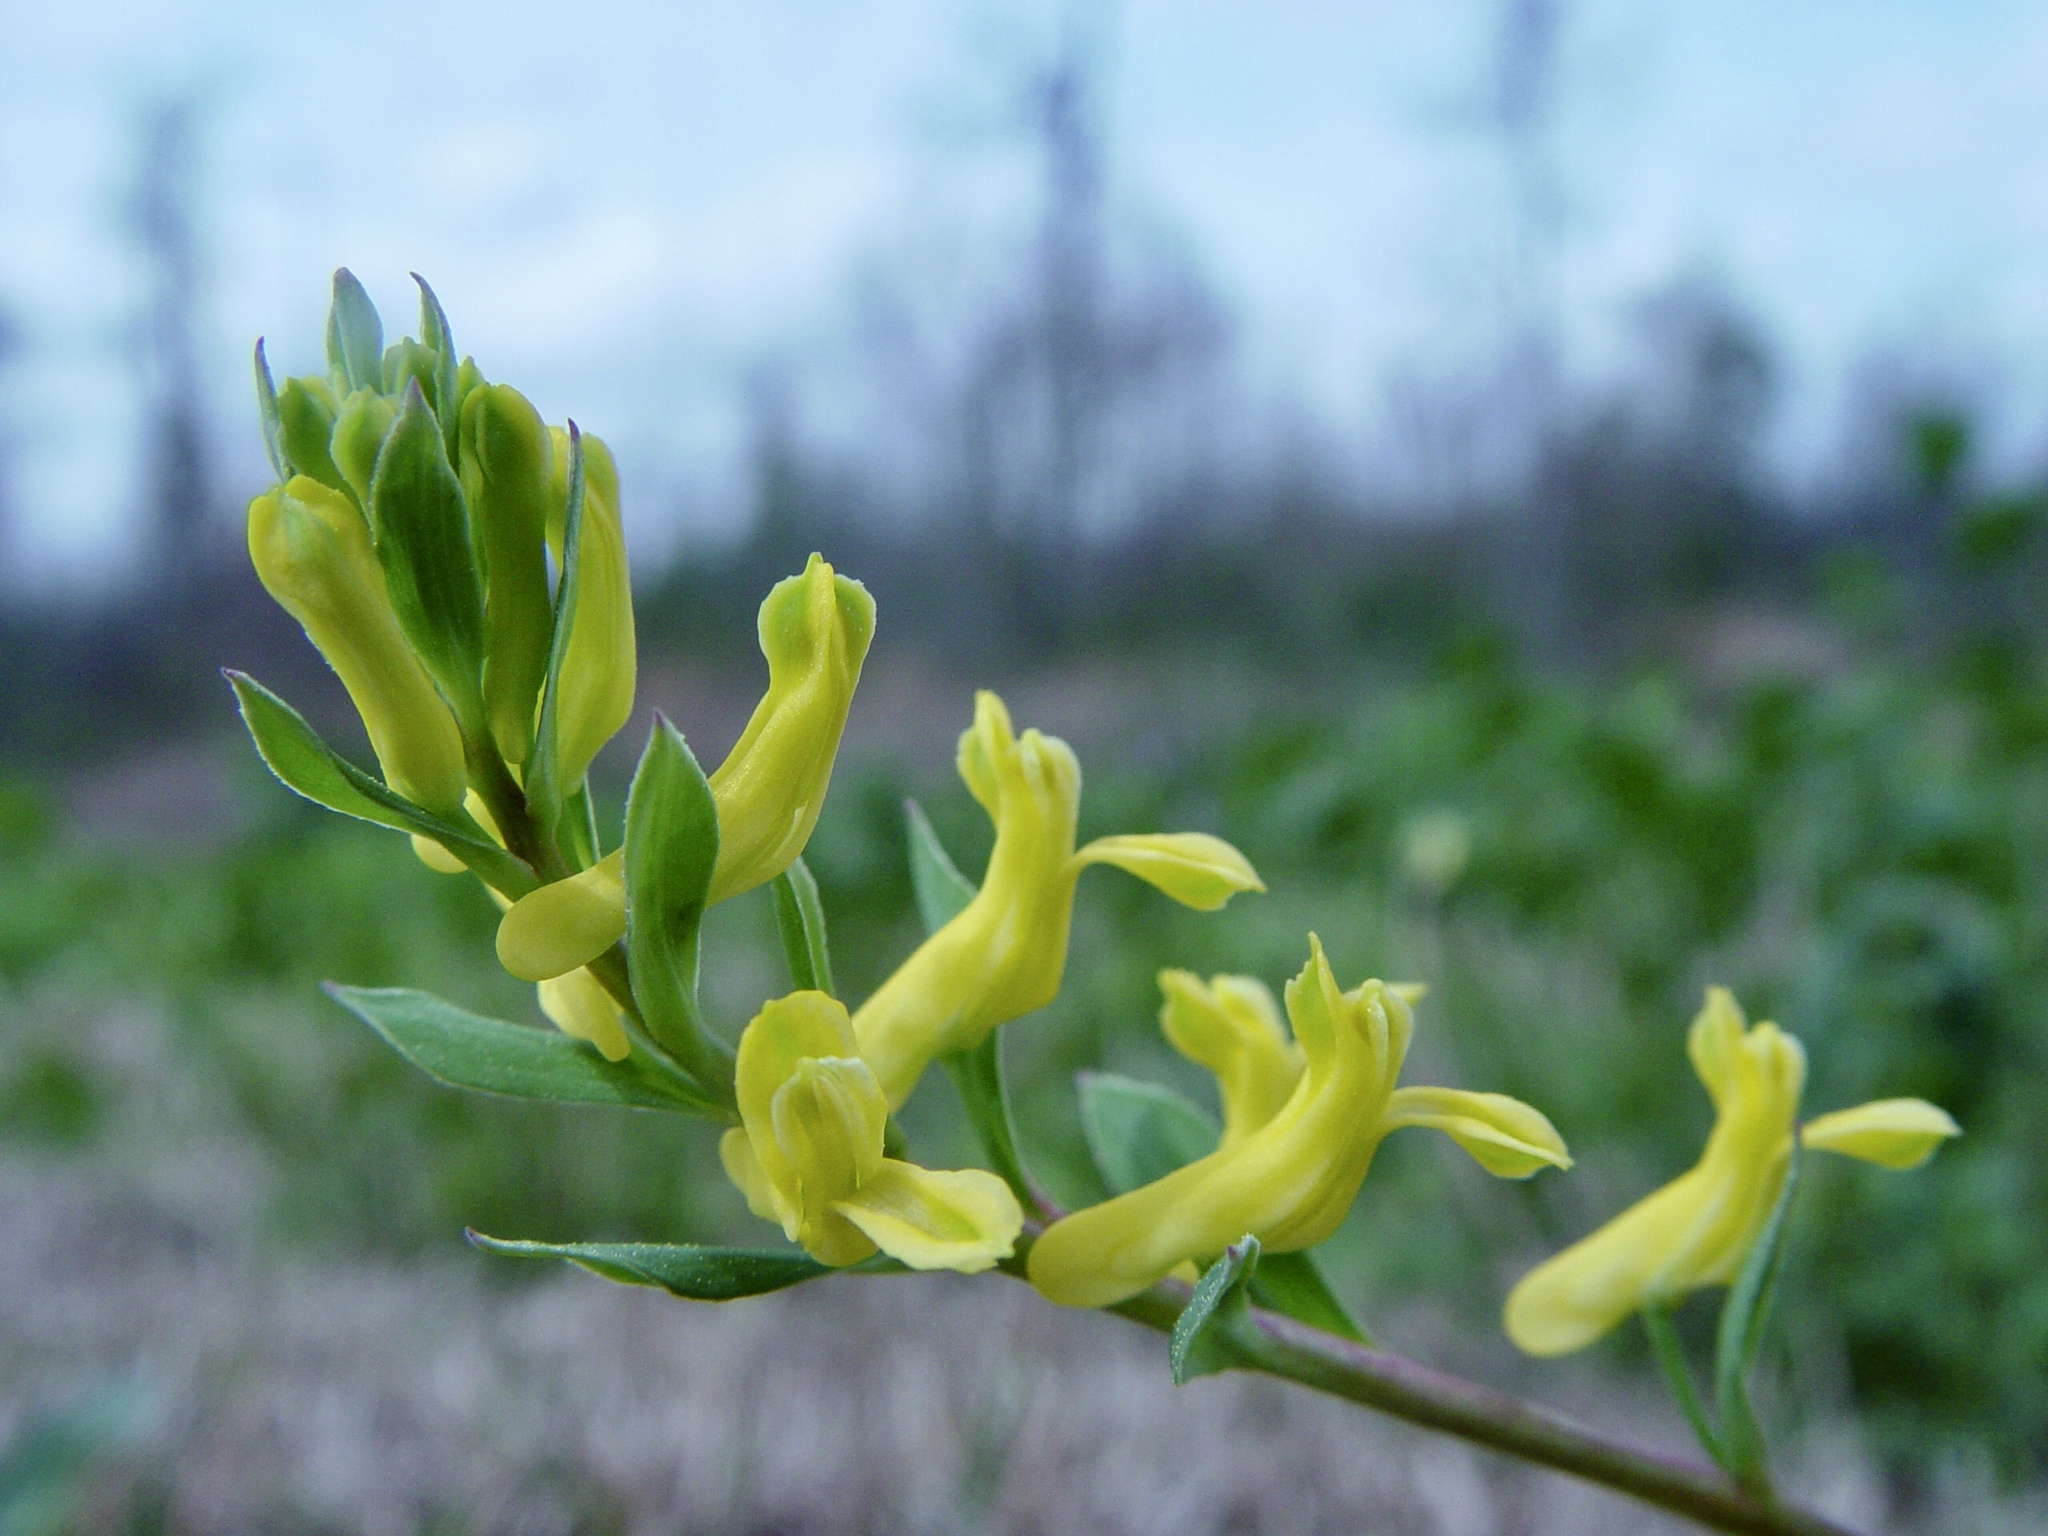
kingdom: Plantae
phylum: Tracheophyta
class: Magnoliopsida
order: Ranunculales
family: Papaveraceae
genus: Corydalis
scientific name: Corydalis micrantha
